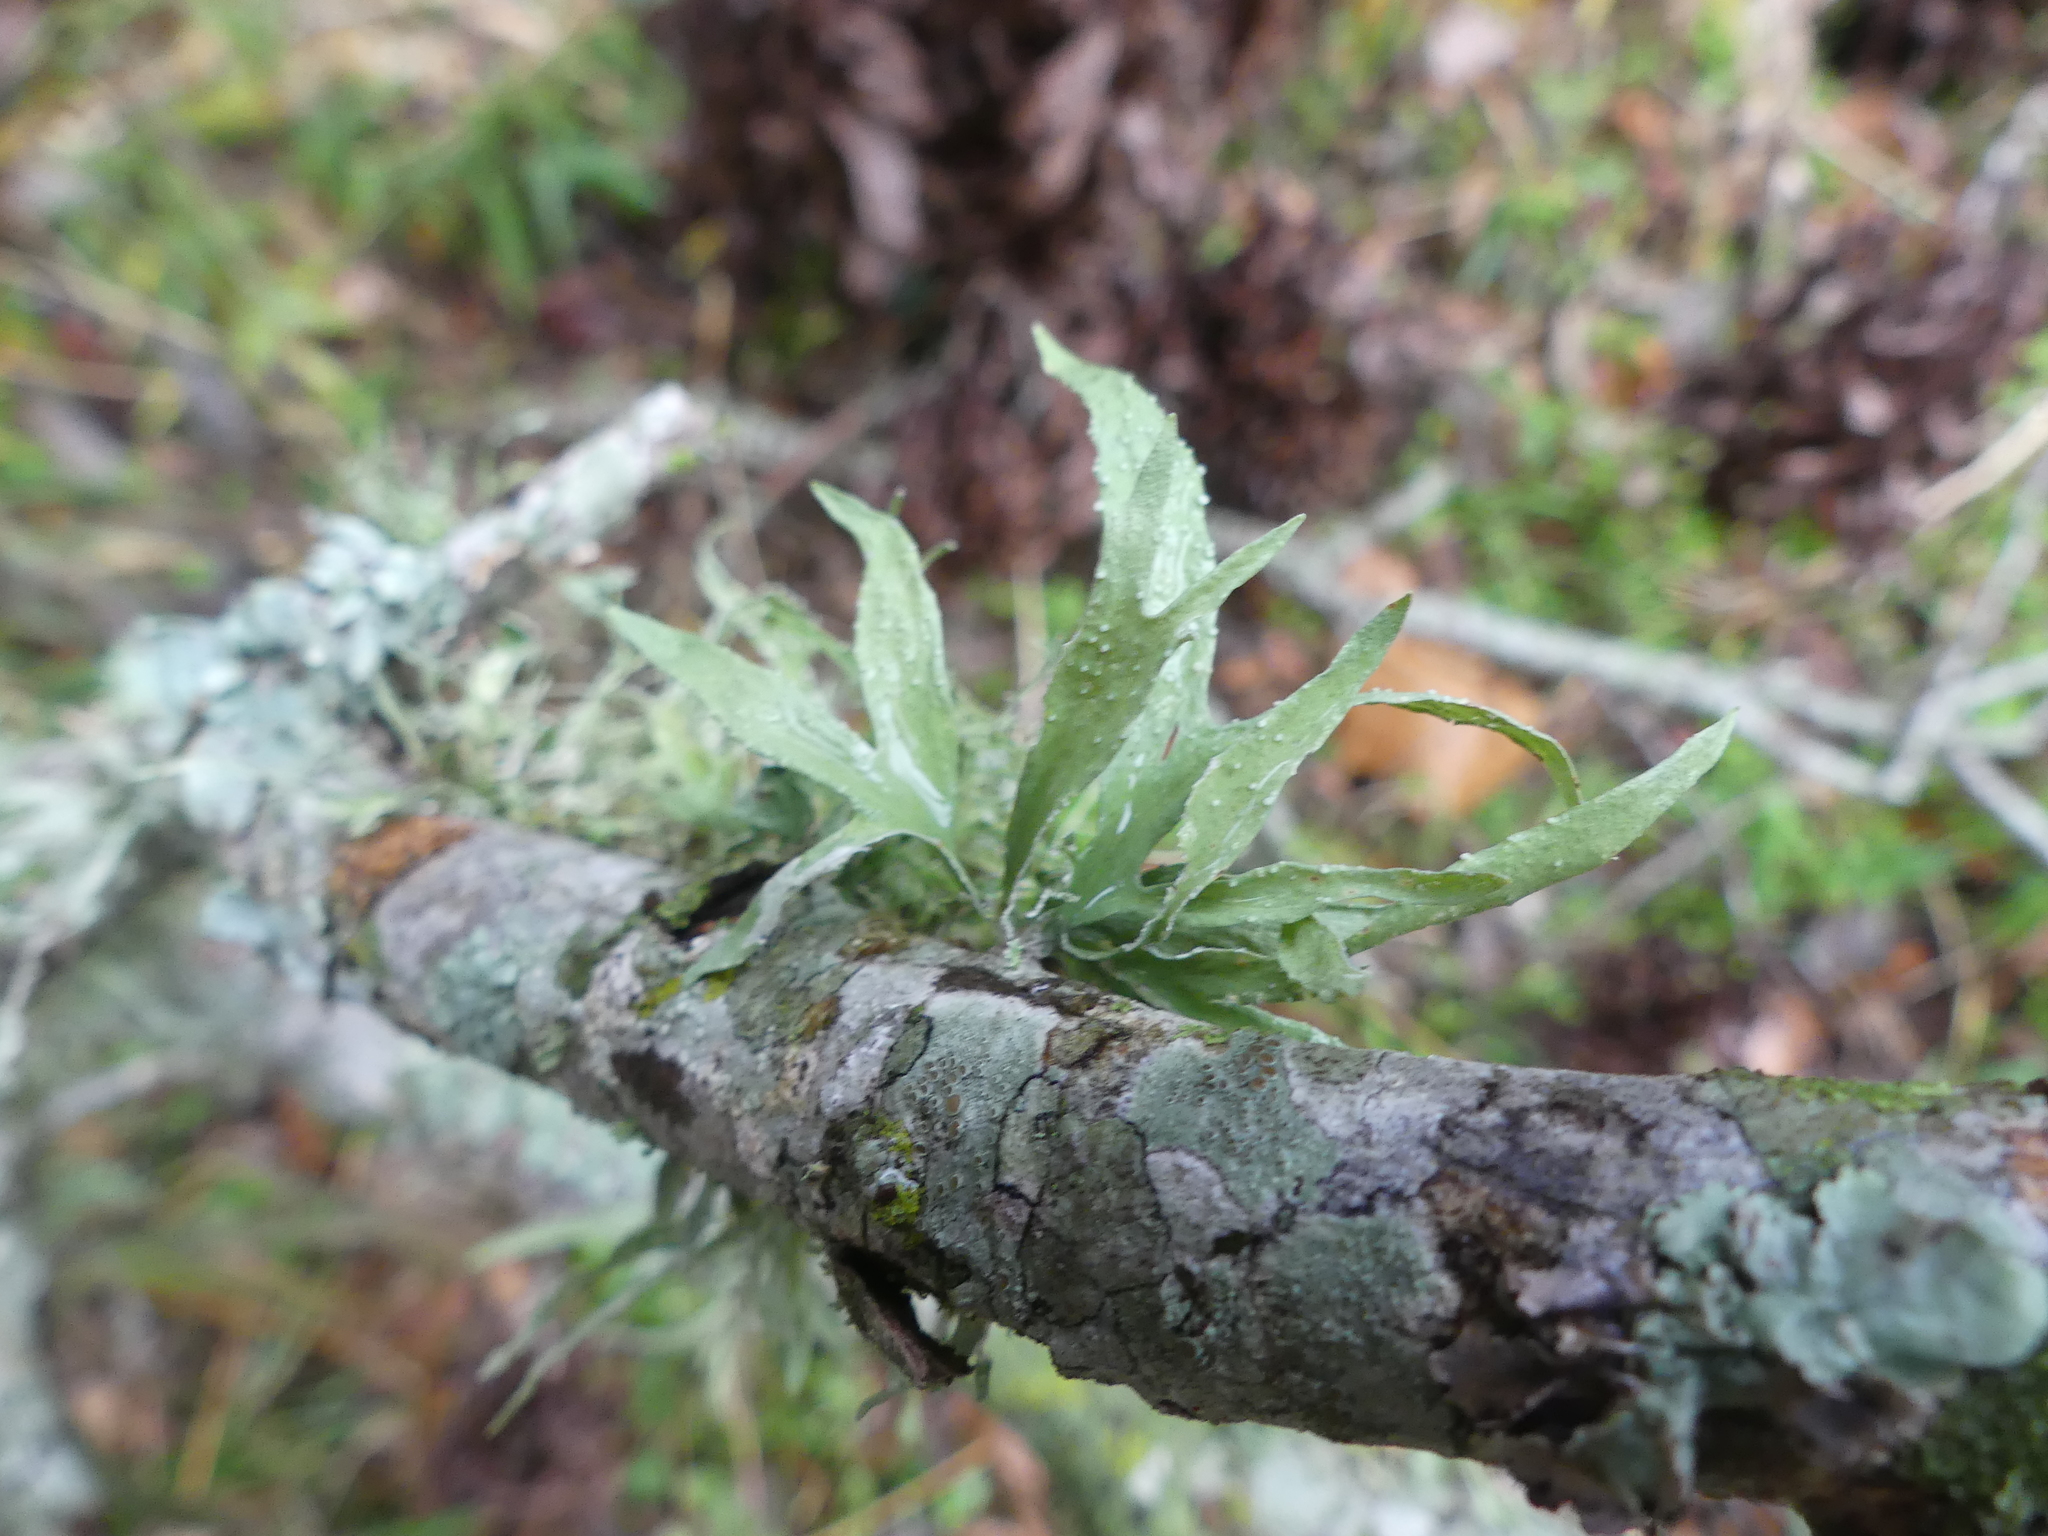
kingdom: Fungi
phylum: Ascomycota
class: Lecanoromycetes
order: Lecanorales
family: Ramalinaceae
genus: Ramalina
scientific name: Ramalina celastri
